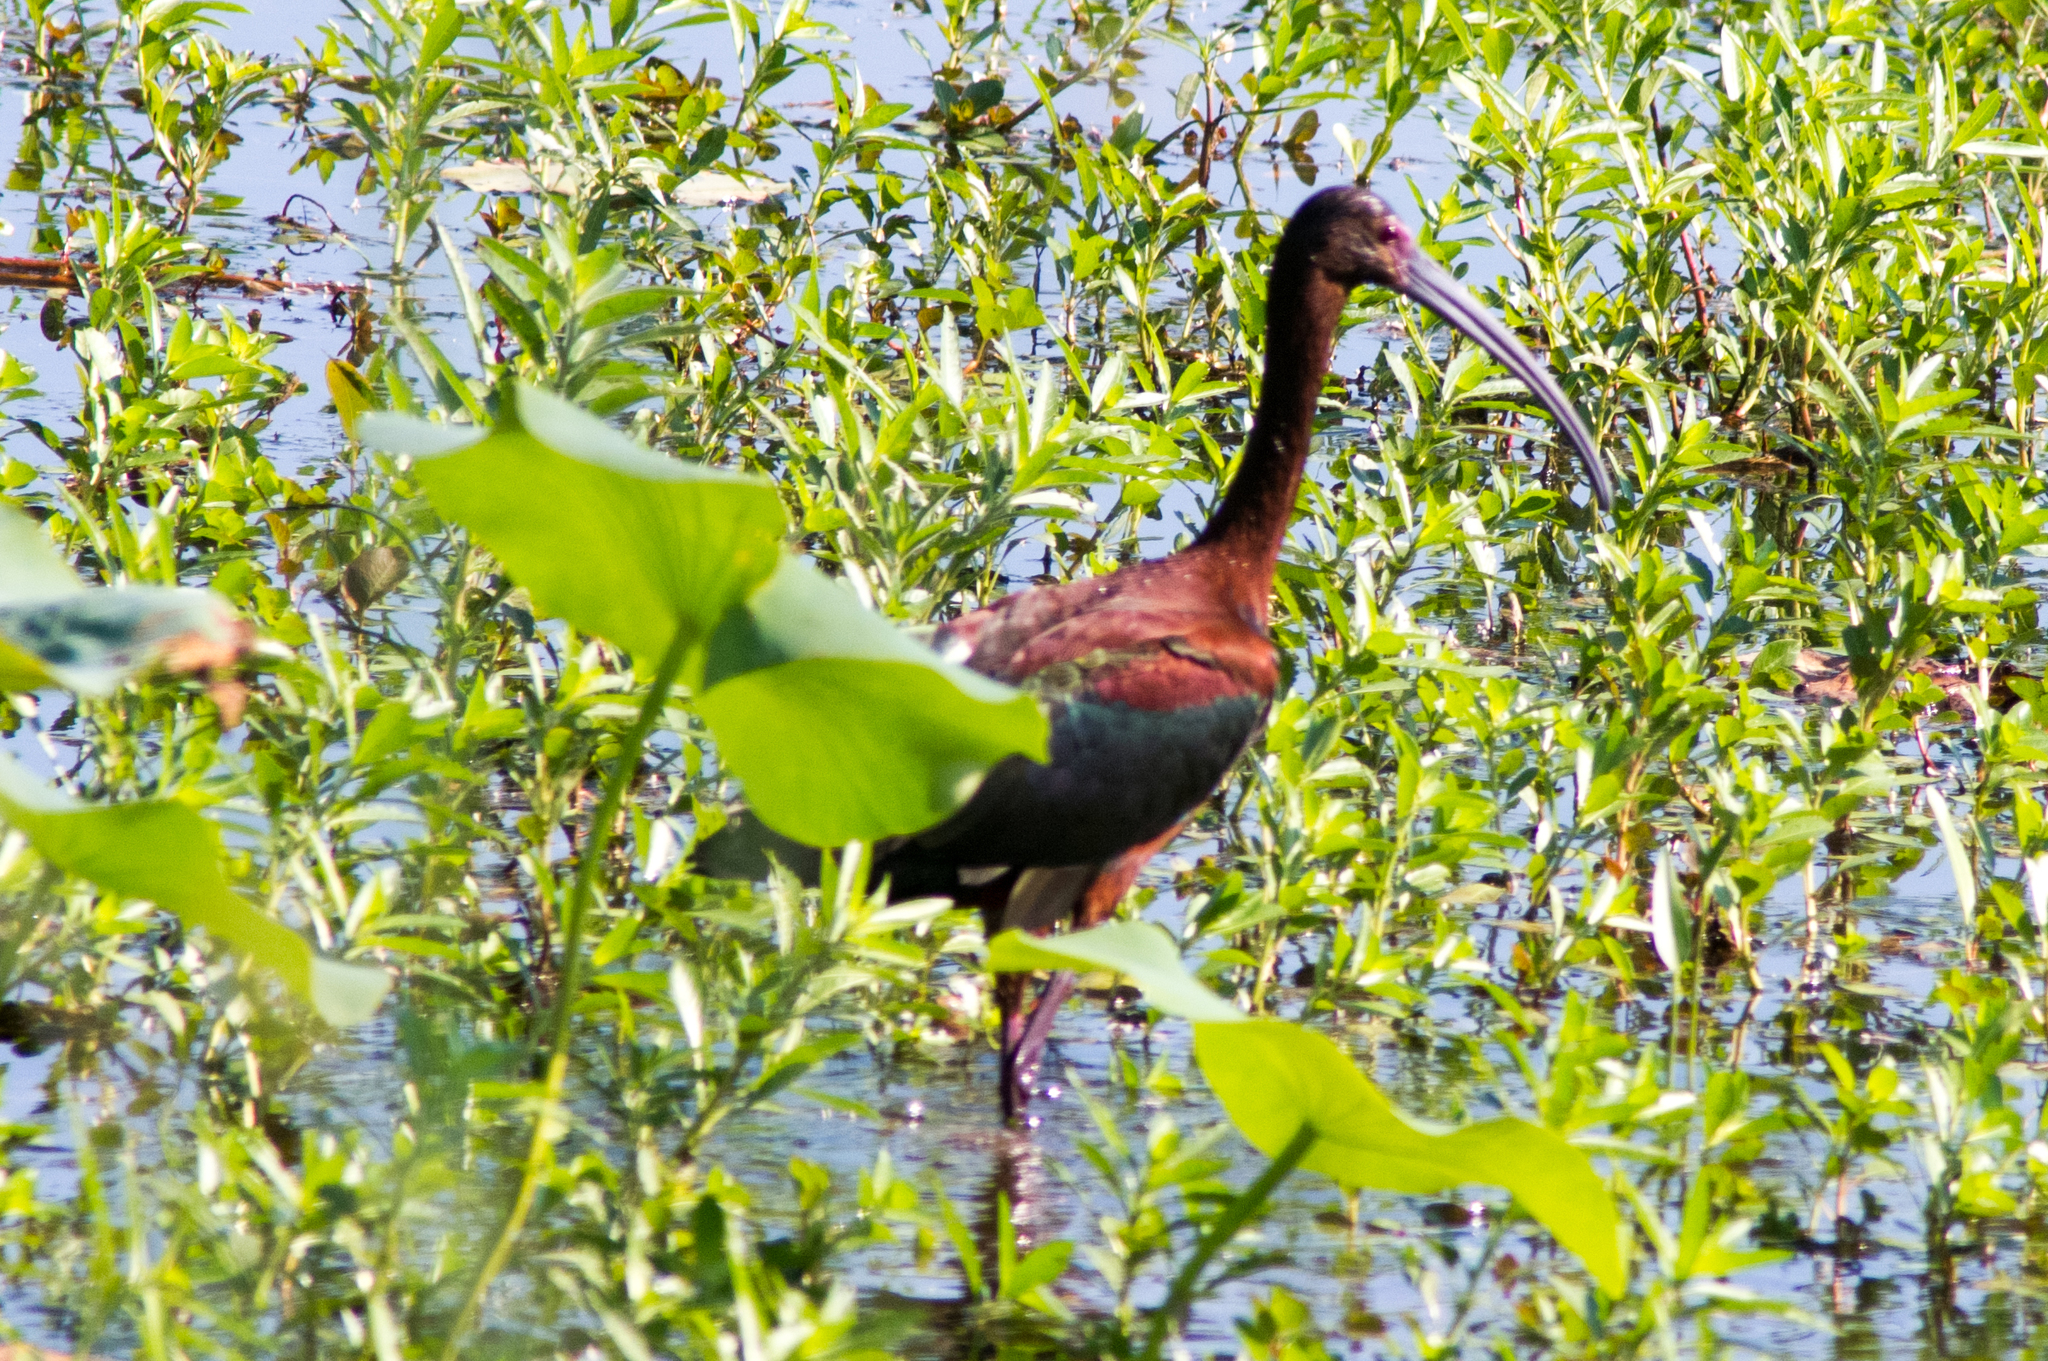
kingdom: Animalia
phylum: Chordata
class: Aves
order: Pelecaniformes
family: Threskiornithidae
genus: Plegadis
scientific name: Plegadis chihi
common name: White-faced ibis
